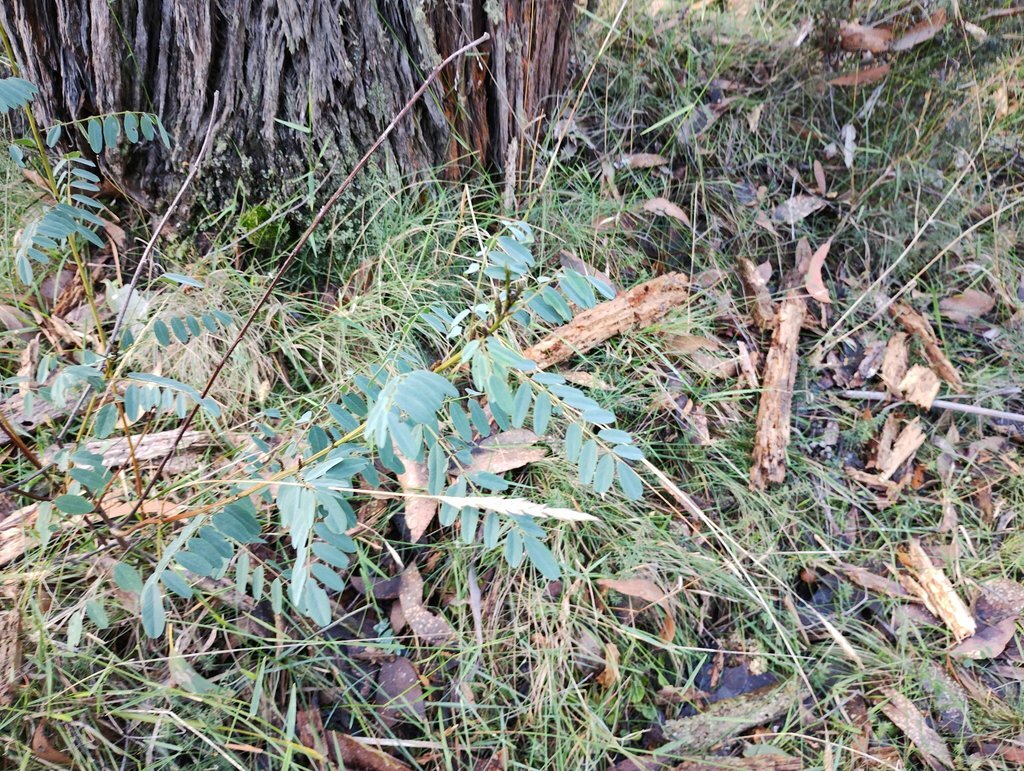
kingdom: Plantae
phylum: Tracheophyta
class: Magnoliopsida
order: Fabales
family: Fabaceae
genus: Indigofera
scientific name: Indigofera australis
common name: Australian indigo
